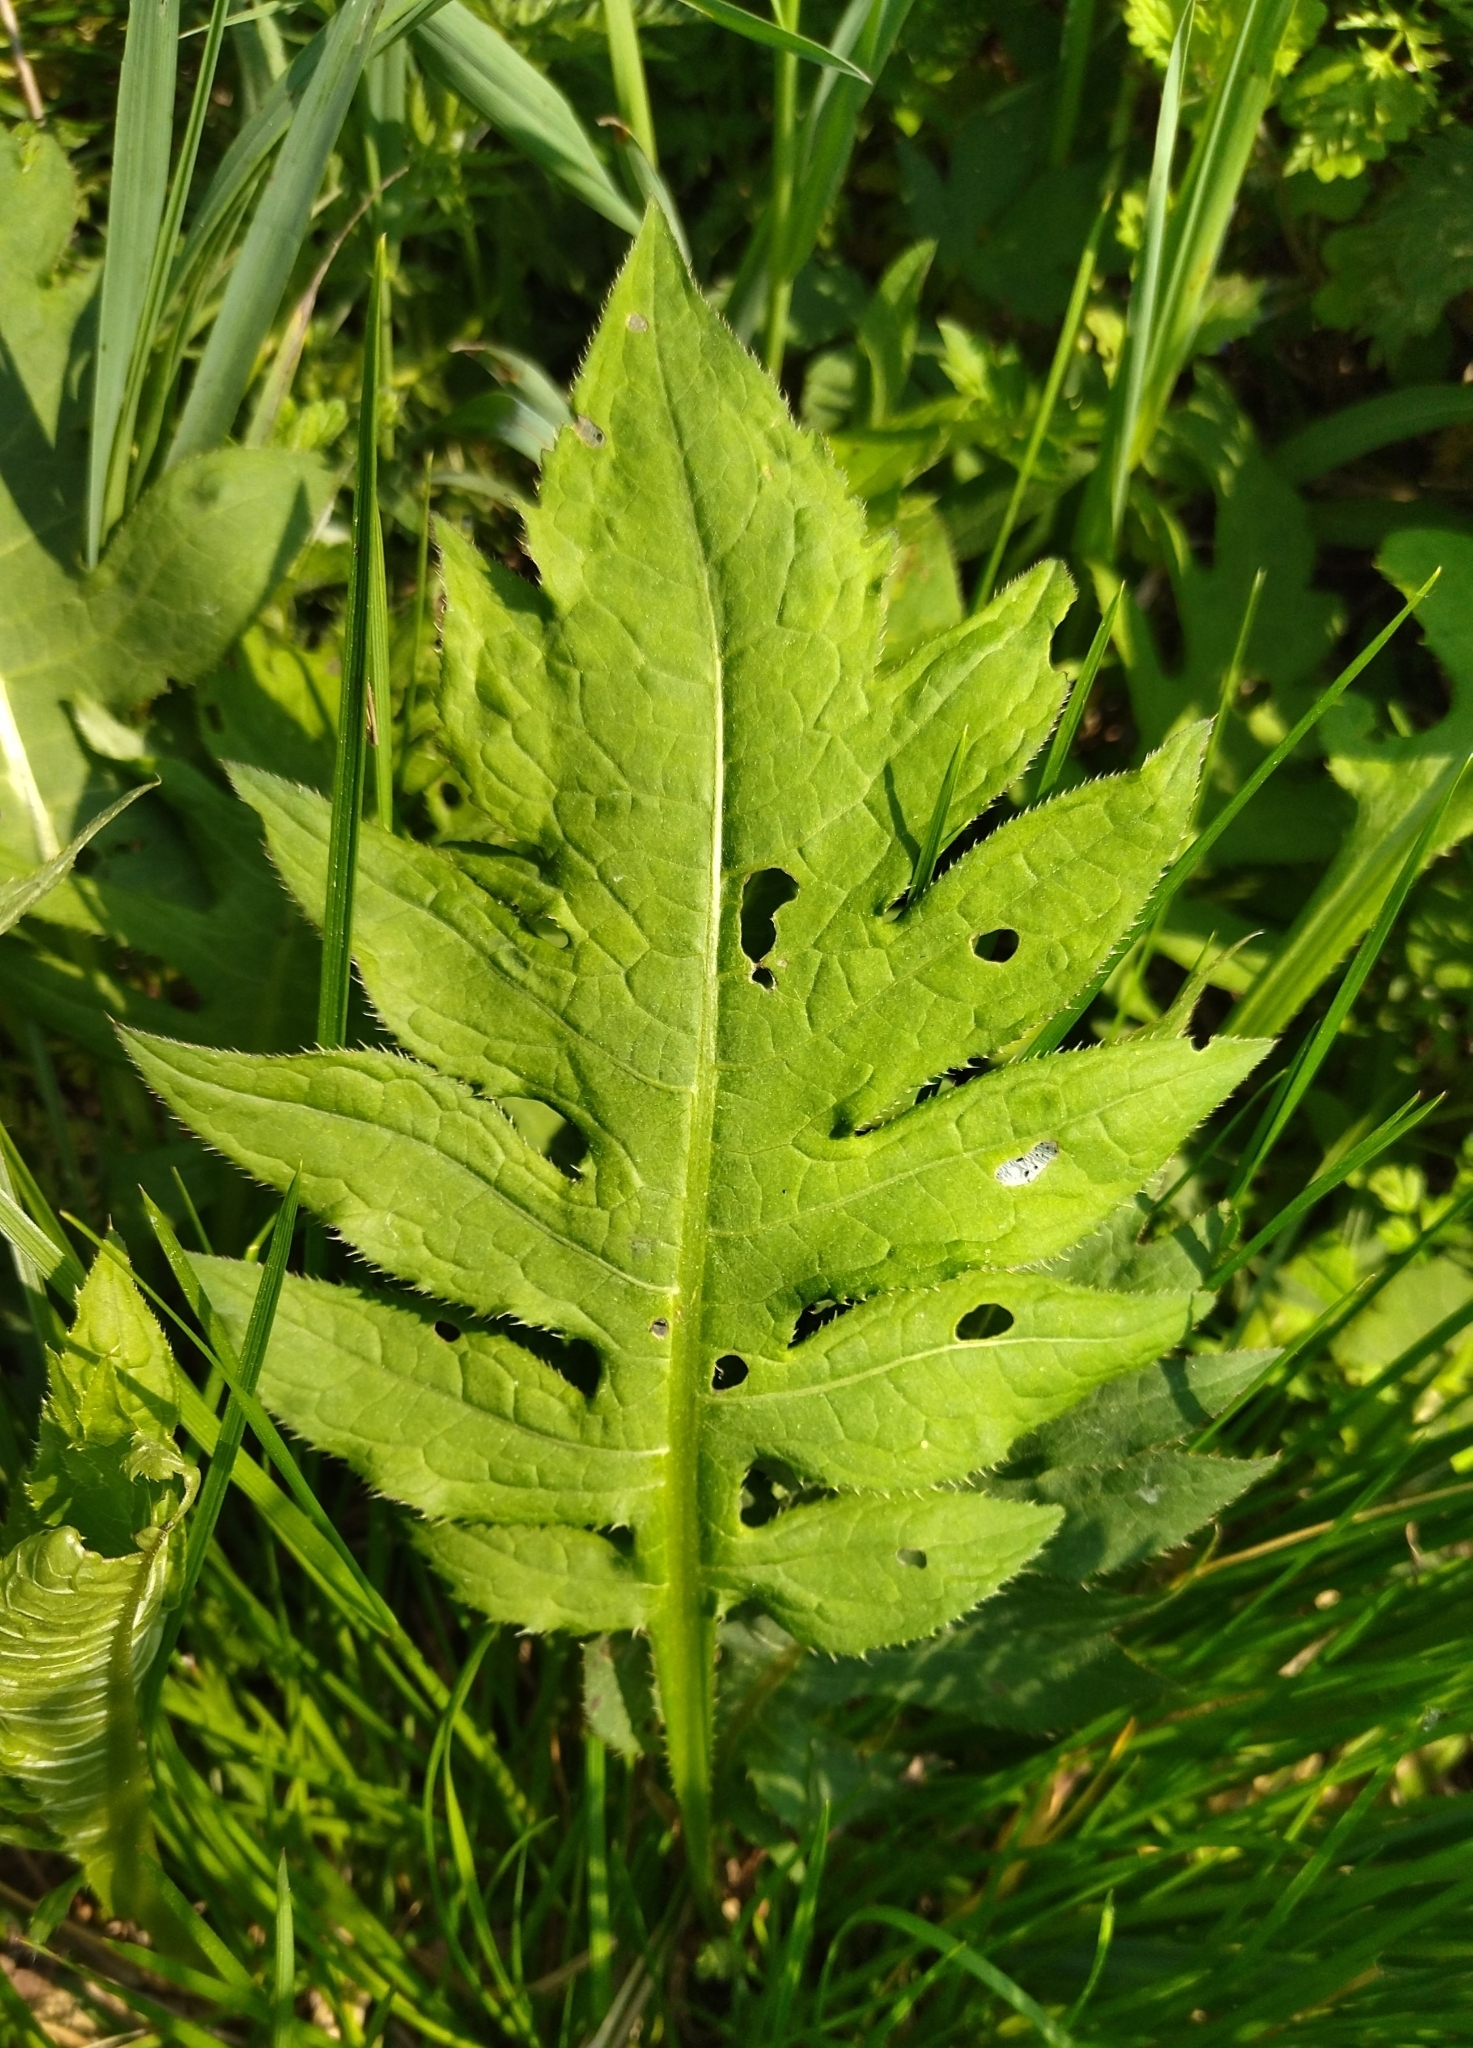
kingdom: Plantae
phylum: Tracheophyta
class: Magnoliopsida
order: Asterales
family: Asteraceae
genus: Cirsium
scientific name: Cirsium oleraceum
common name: Cabbage thistle
